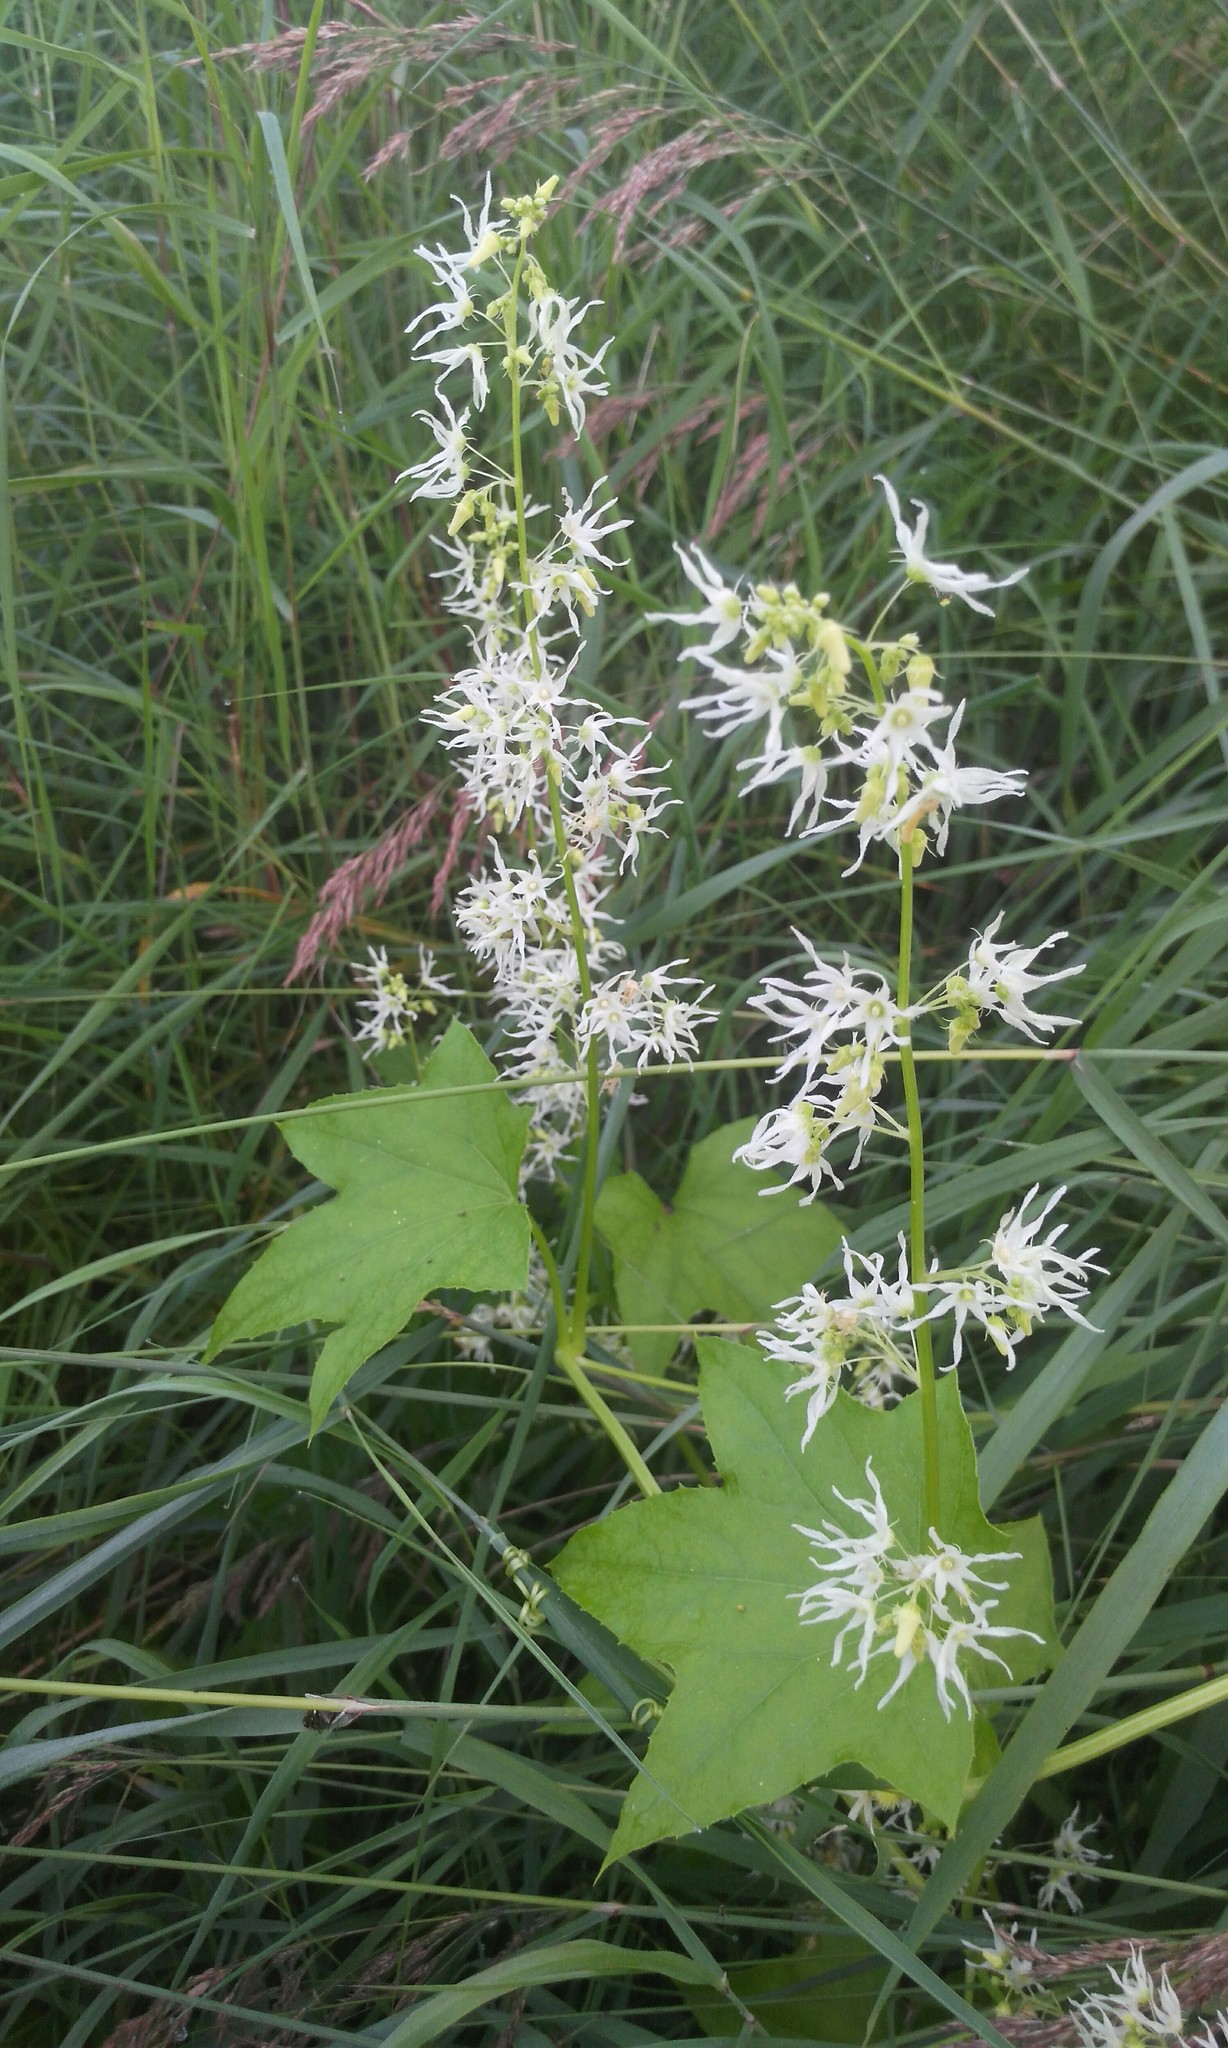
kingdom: Plantae
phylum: Tracheophyta
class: Magnoliopsida
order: Cucurbitales
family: Cucurbitaceae
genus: Echinocystis
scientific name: Echinocystis lobata
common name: Wild cucumber
